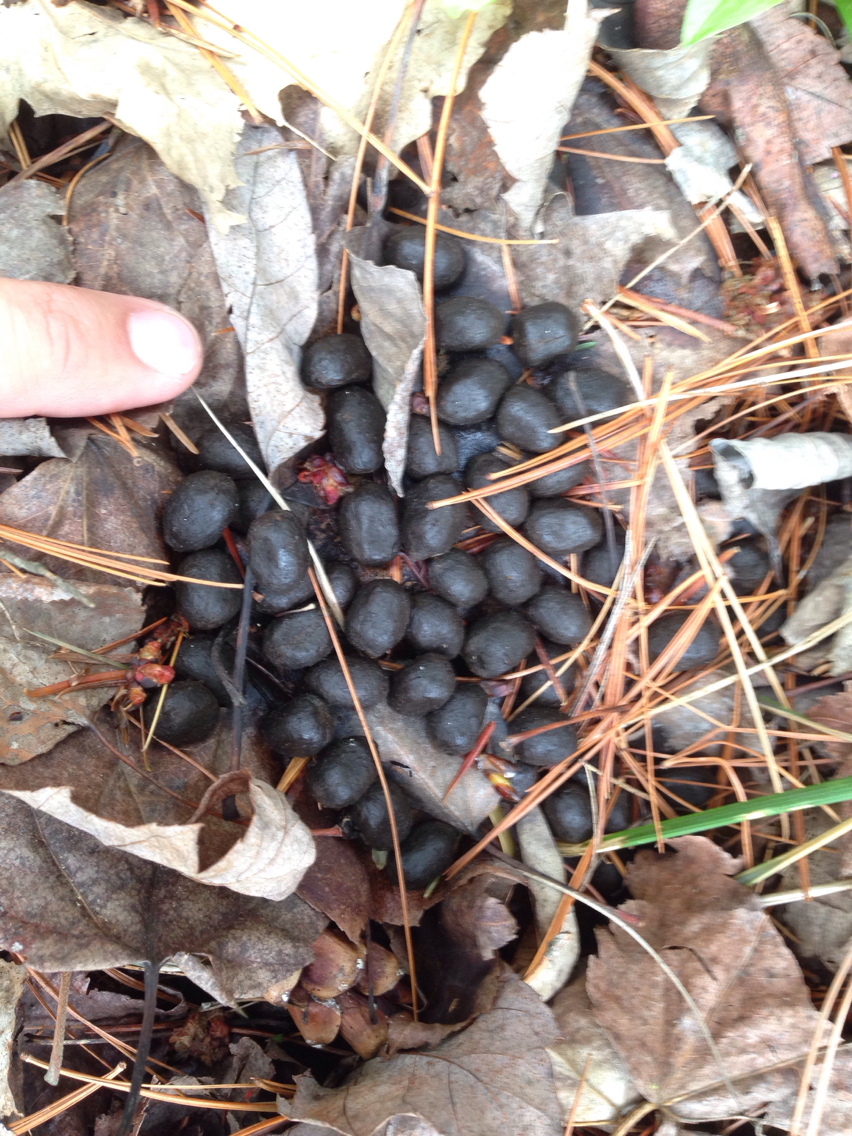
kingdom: Animalia
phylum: Chordata
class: Mammalia
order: Artiodactyla
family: Cervidae
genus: Odocoileus
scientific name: Odocoileus virginianus
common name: White-tailed deer
